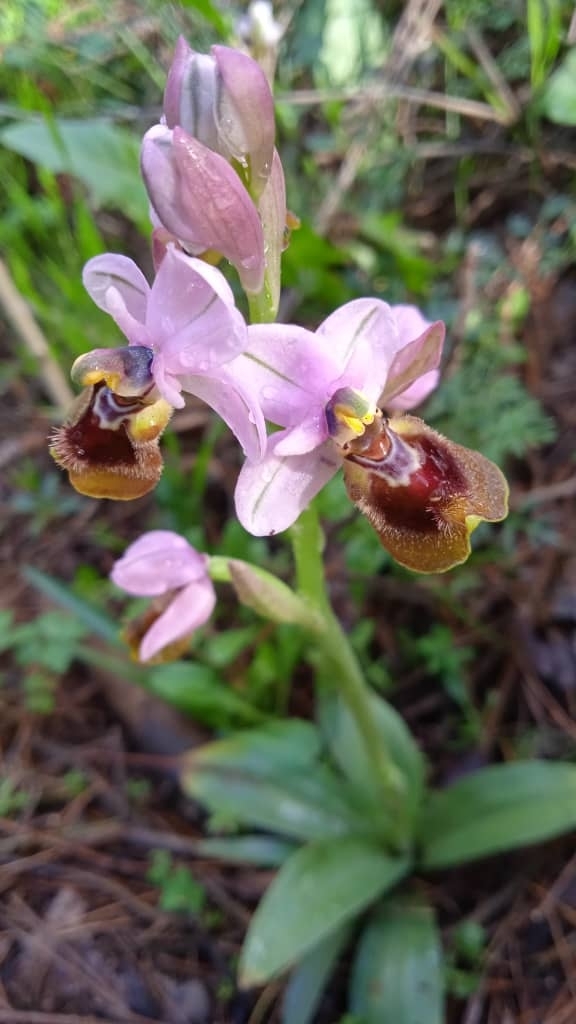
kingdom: Plantae
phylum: Tracheophyta
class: Liliopsida
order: Asparagales
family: Orchidaceae
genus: Ophrys
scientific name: Ophrys tenthredinifera
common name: Sawfly orchid
